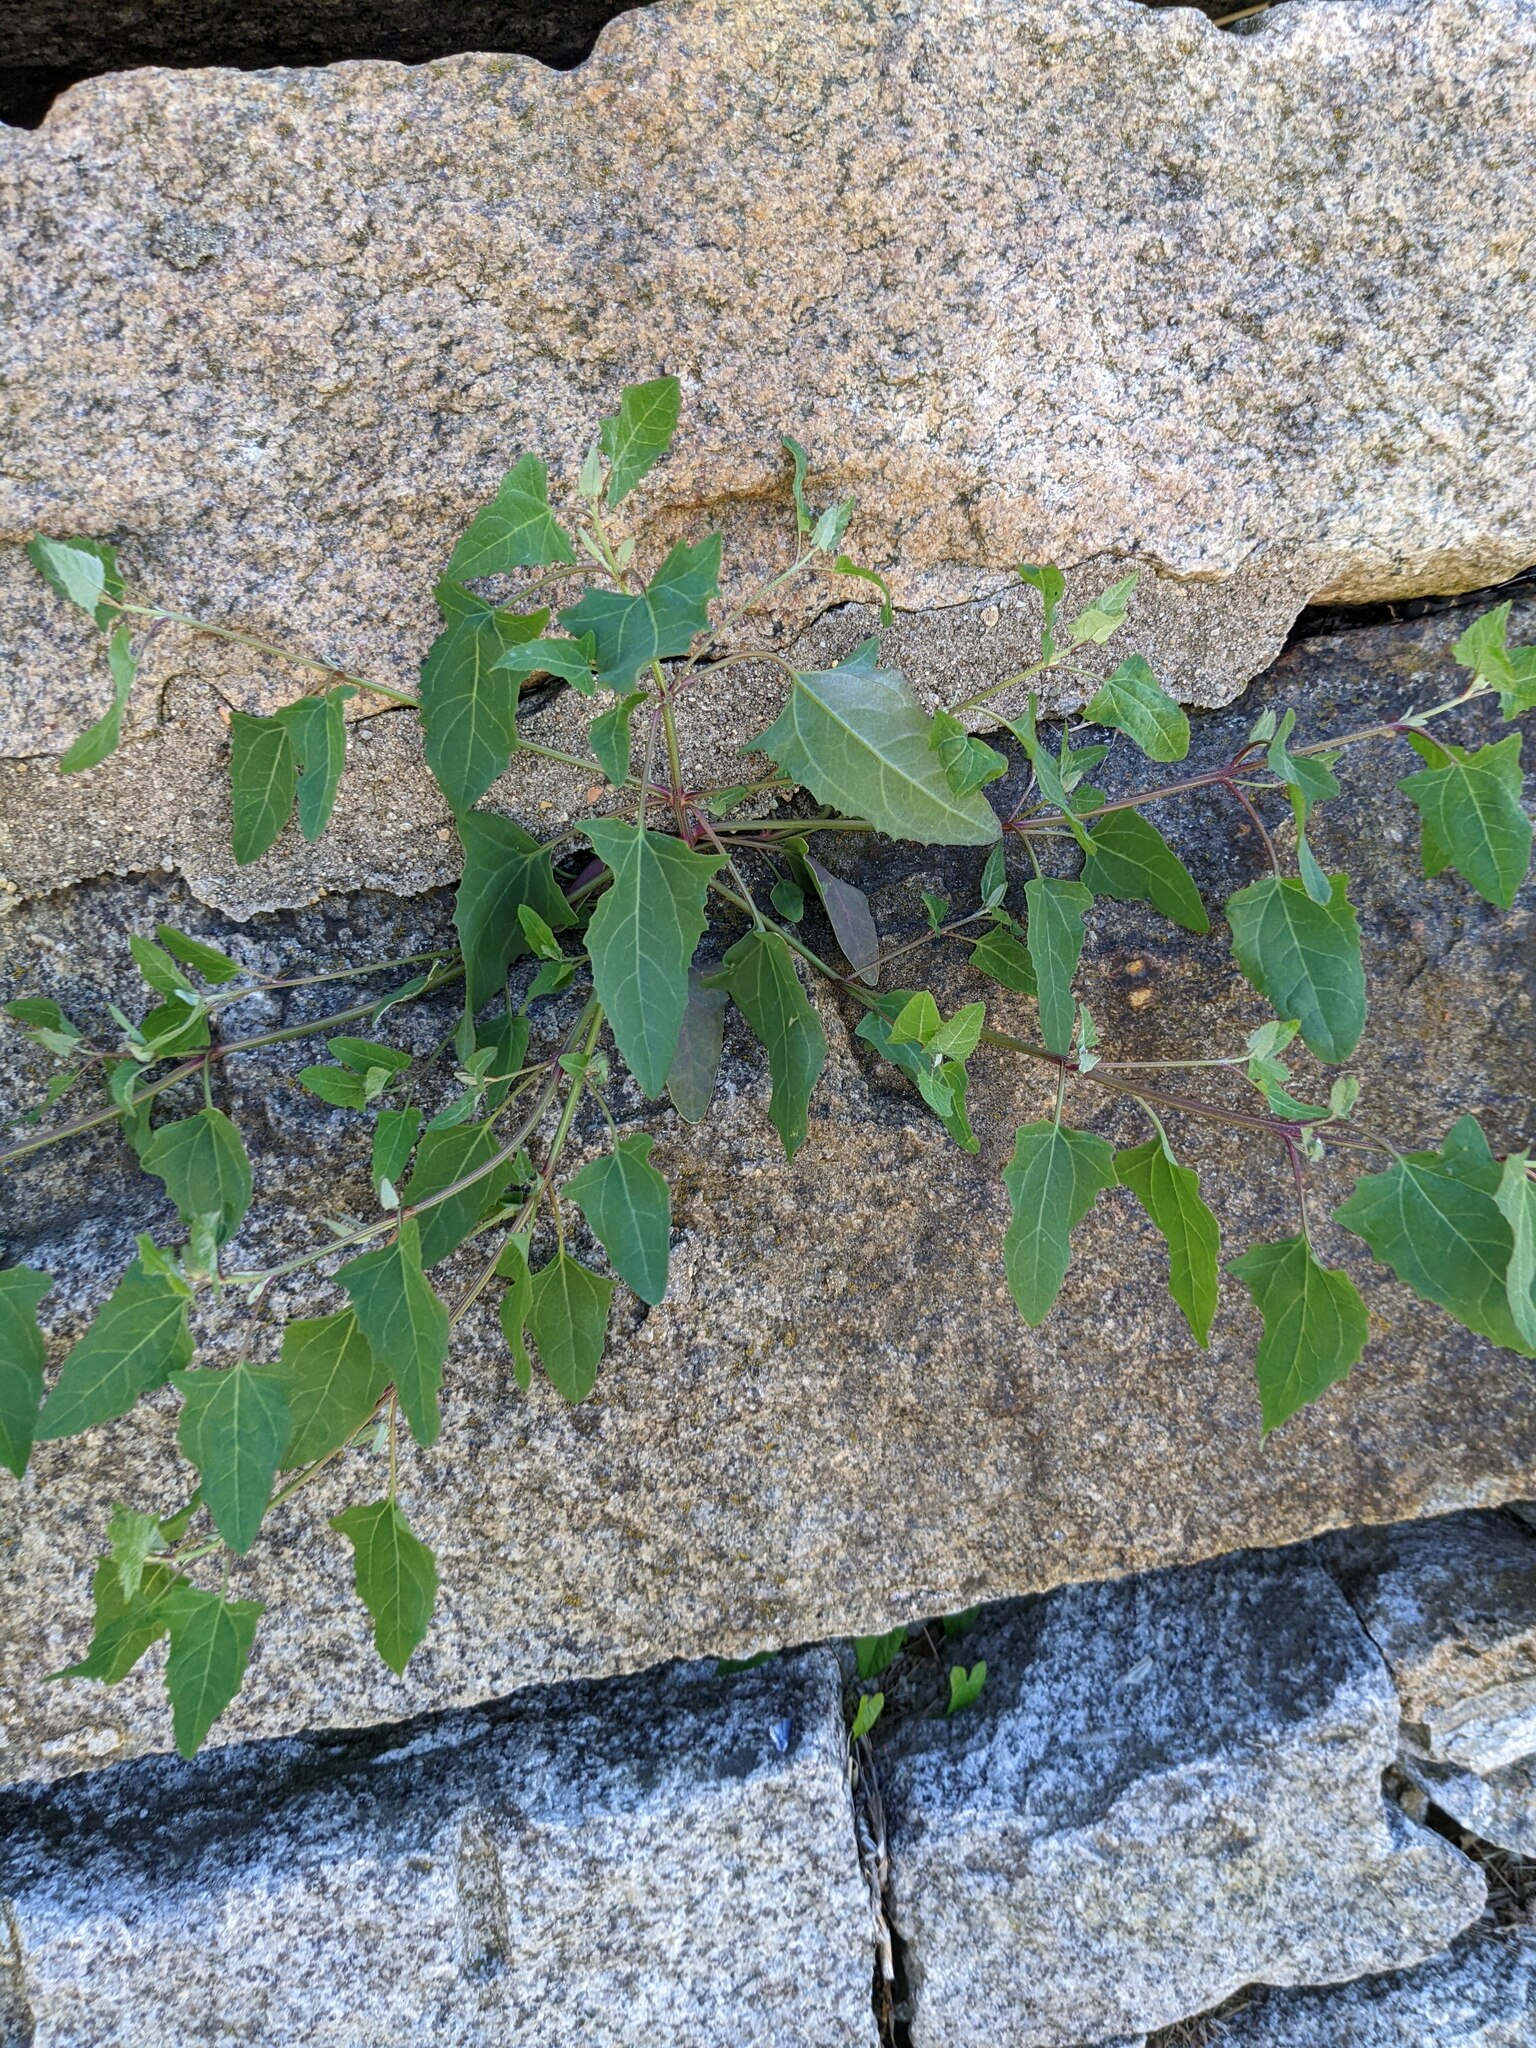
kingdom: Plantae
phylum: Tracheophyta
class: Magnoliopsida
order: Caryophyllales
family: Amaranthaceae
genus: Chenopodium
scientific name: Chenopodium album
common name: Fat-hen
